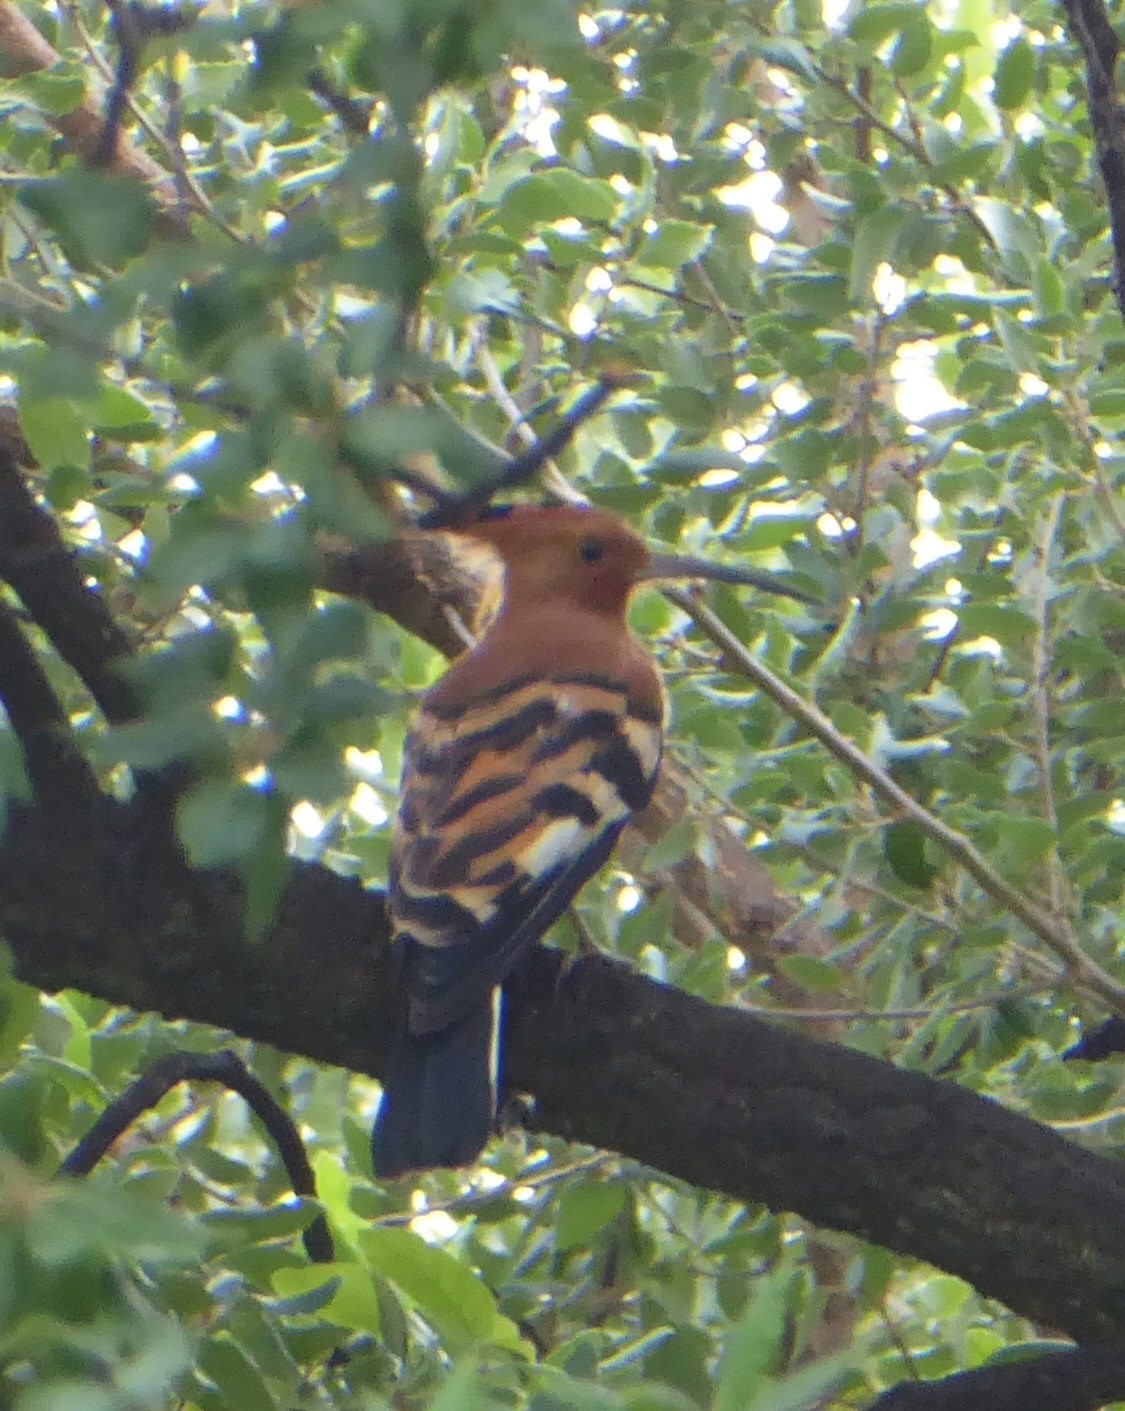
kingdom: Animalia
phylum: Chordata
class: Aves
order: Bucerotiformes
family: Upupidae
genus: Upupa
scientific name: Upupa africana
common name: African hoopoe
